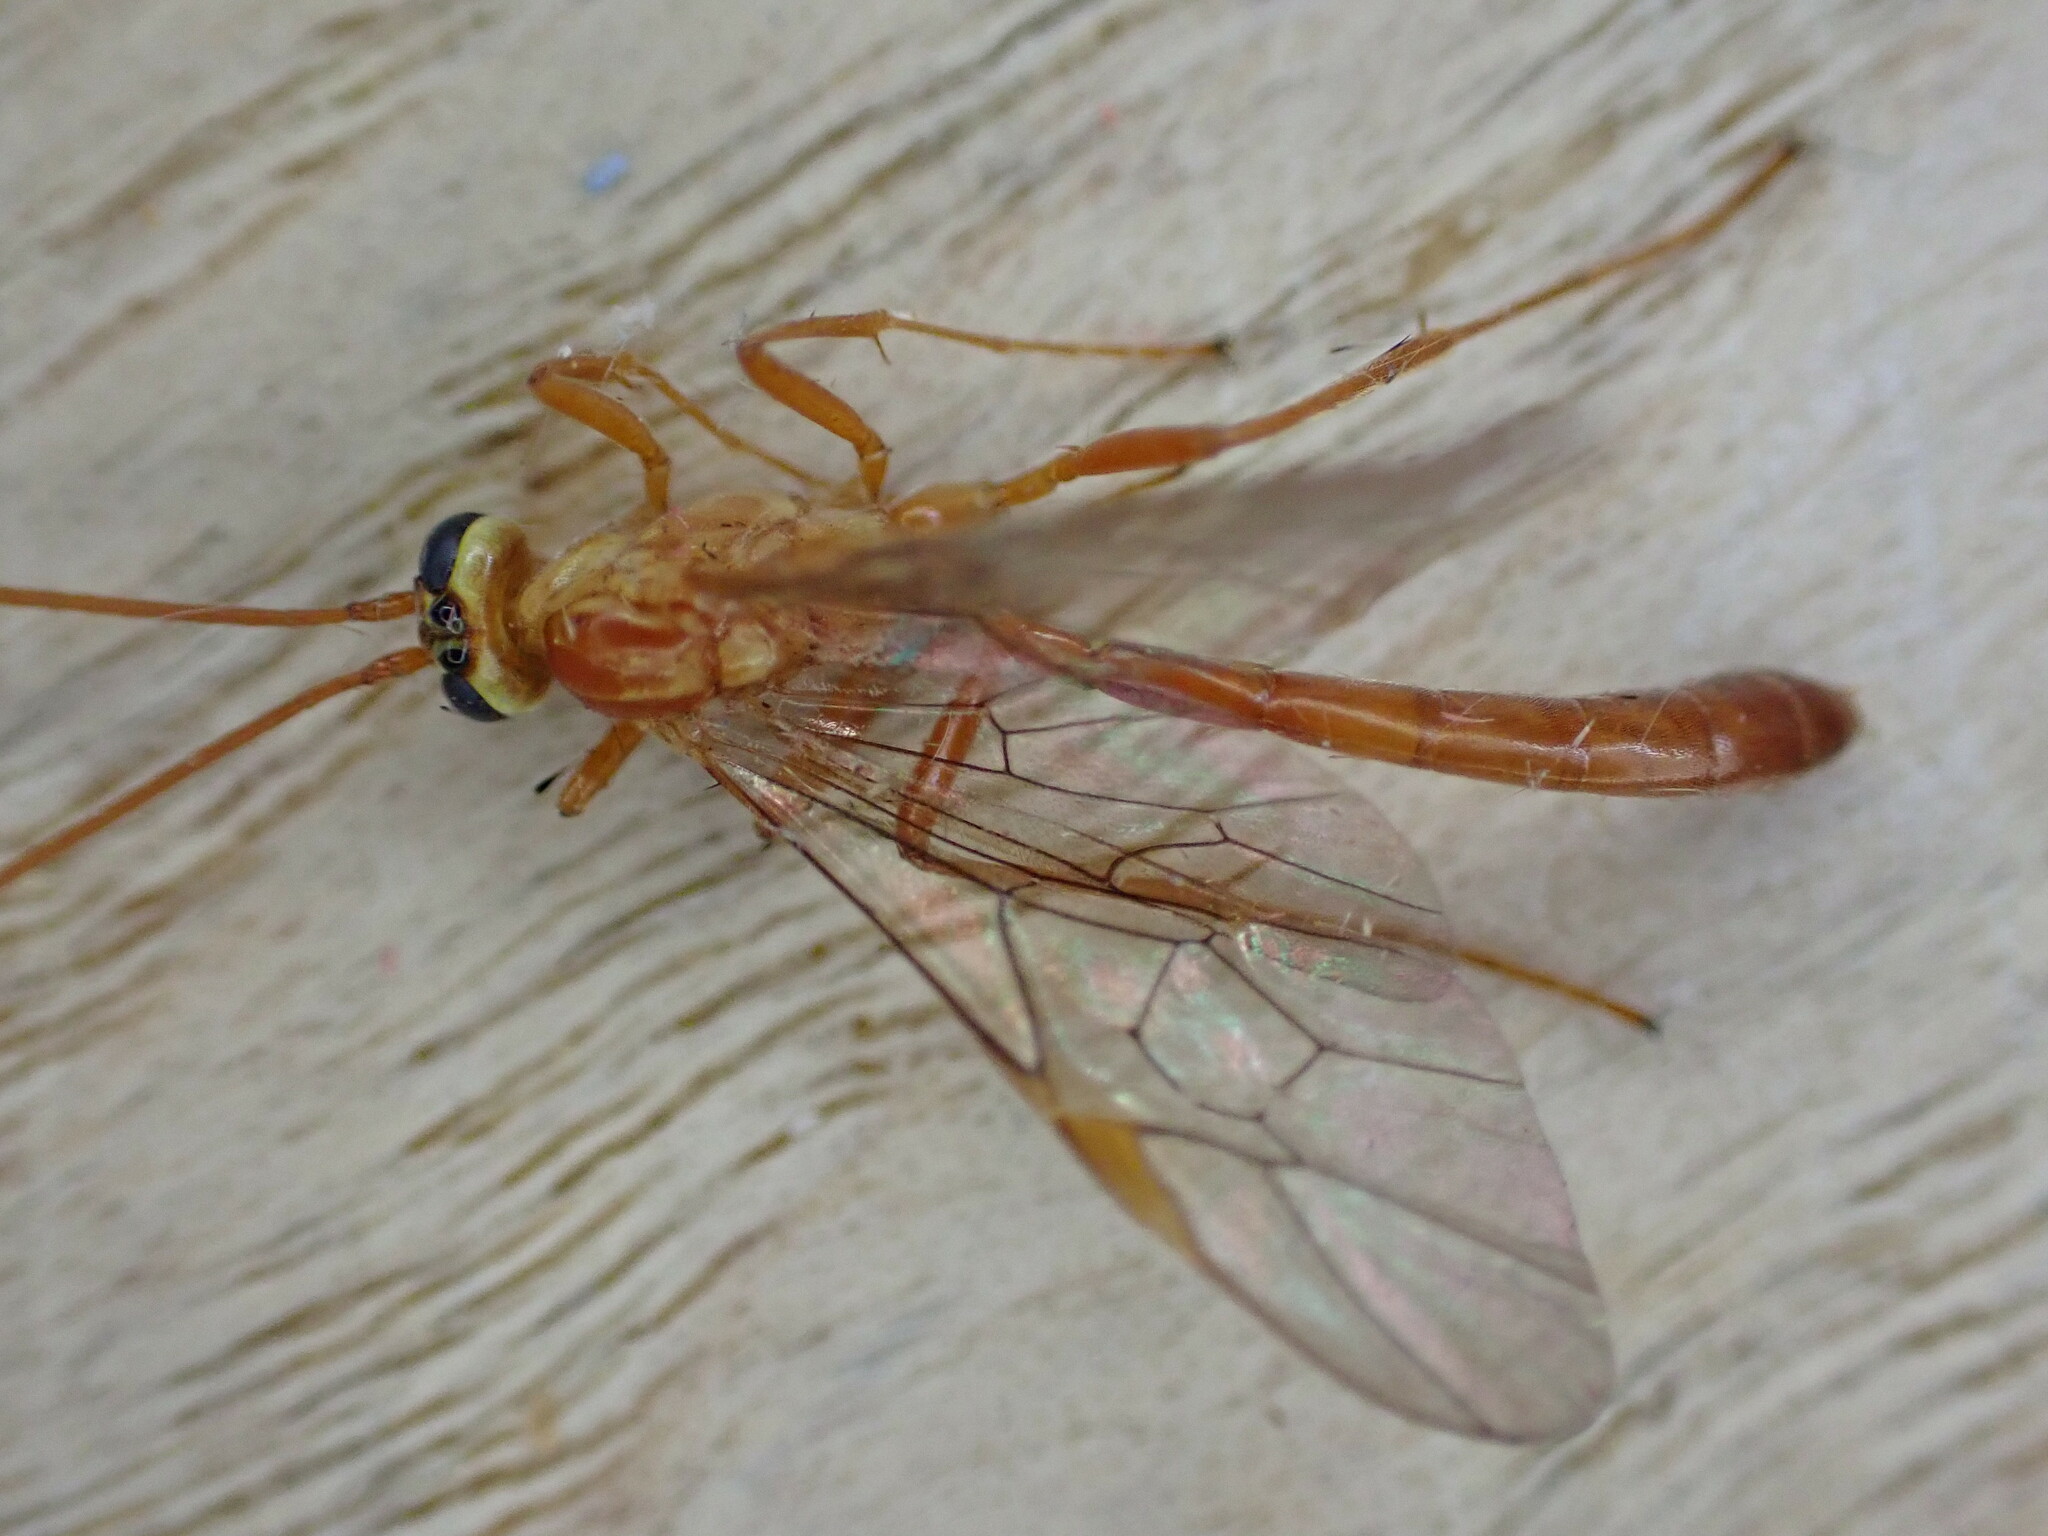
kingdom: Animalia
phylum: Arthropoda
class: Insecta
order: Hymenoptera
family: Ichneumonidae
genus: Ophion
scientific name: Ophion minutus
